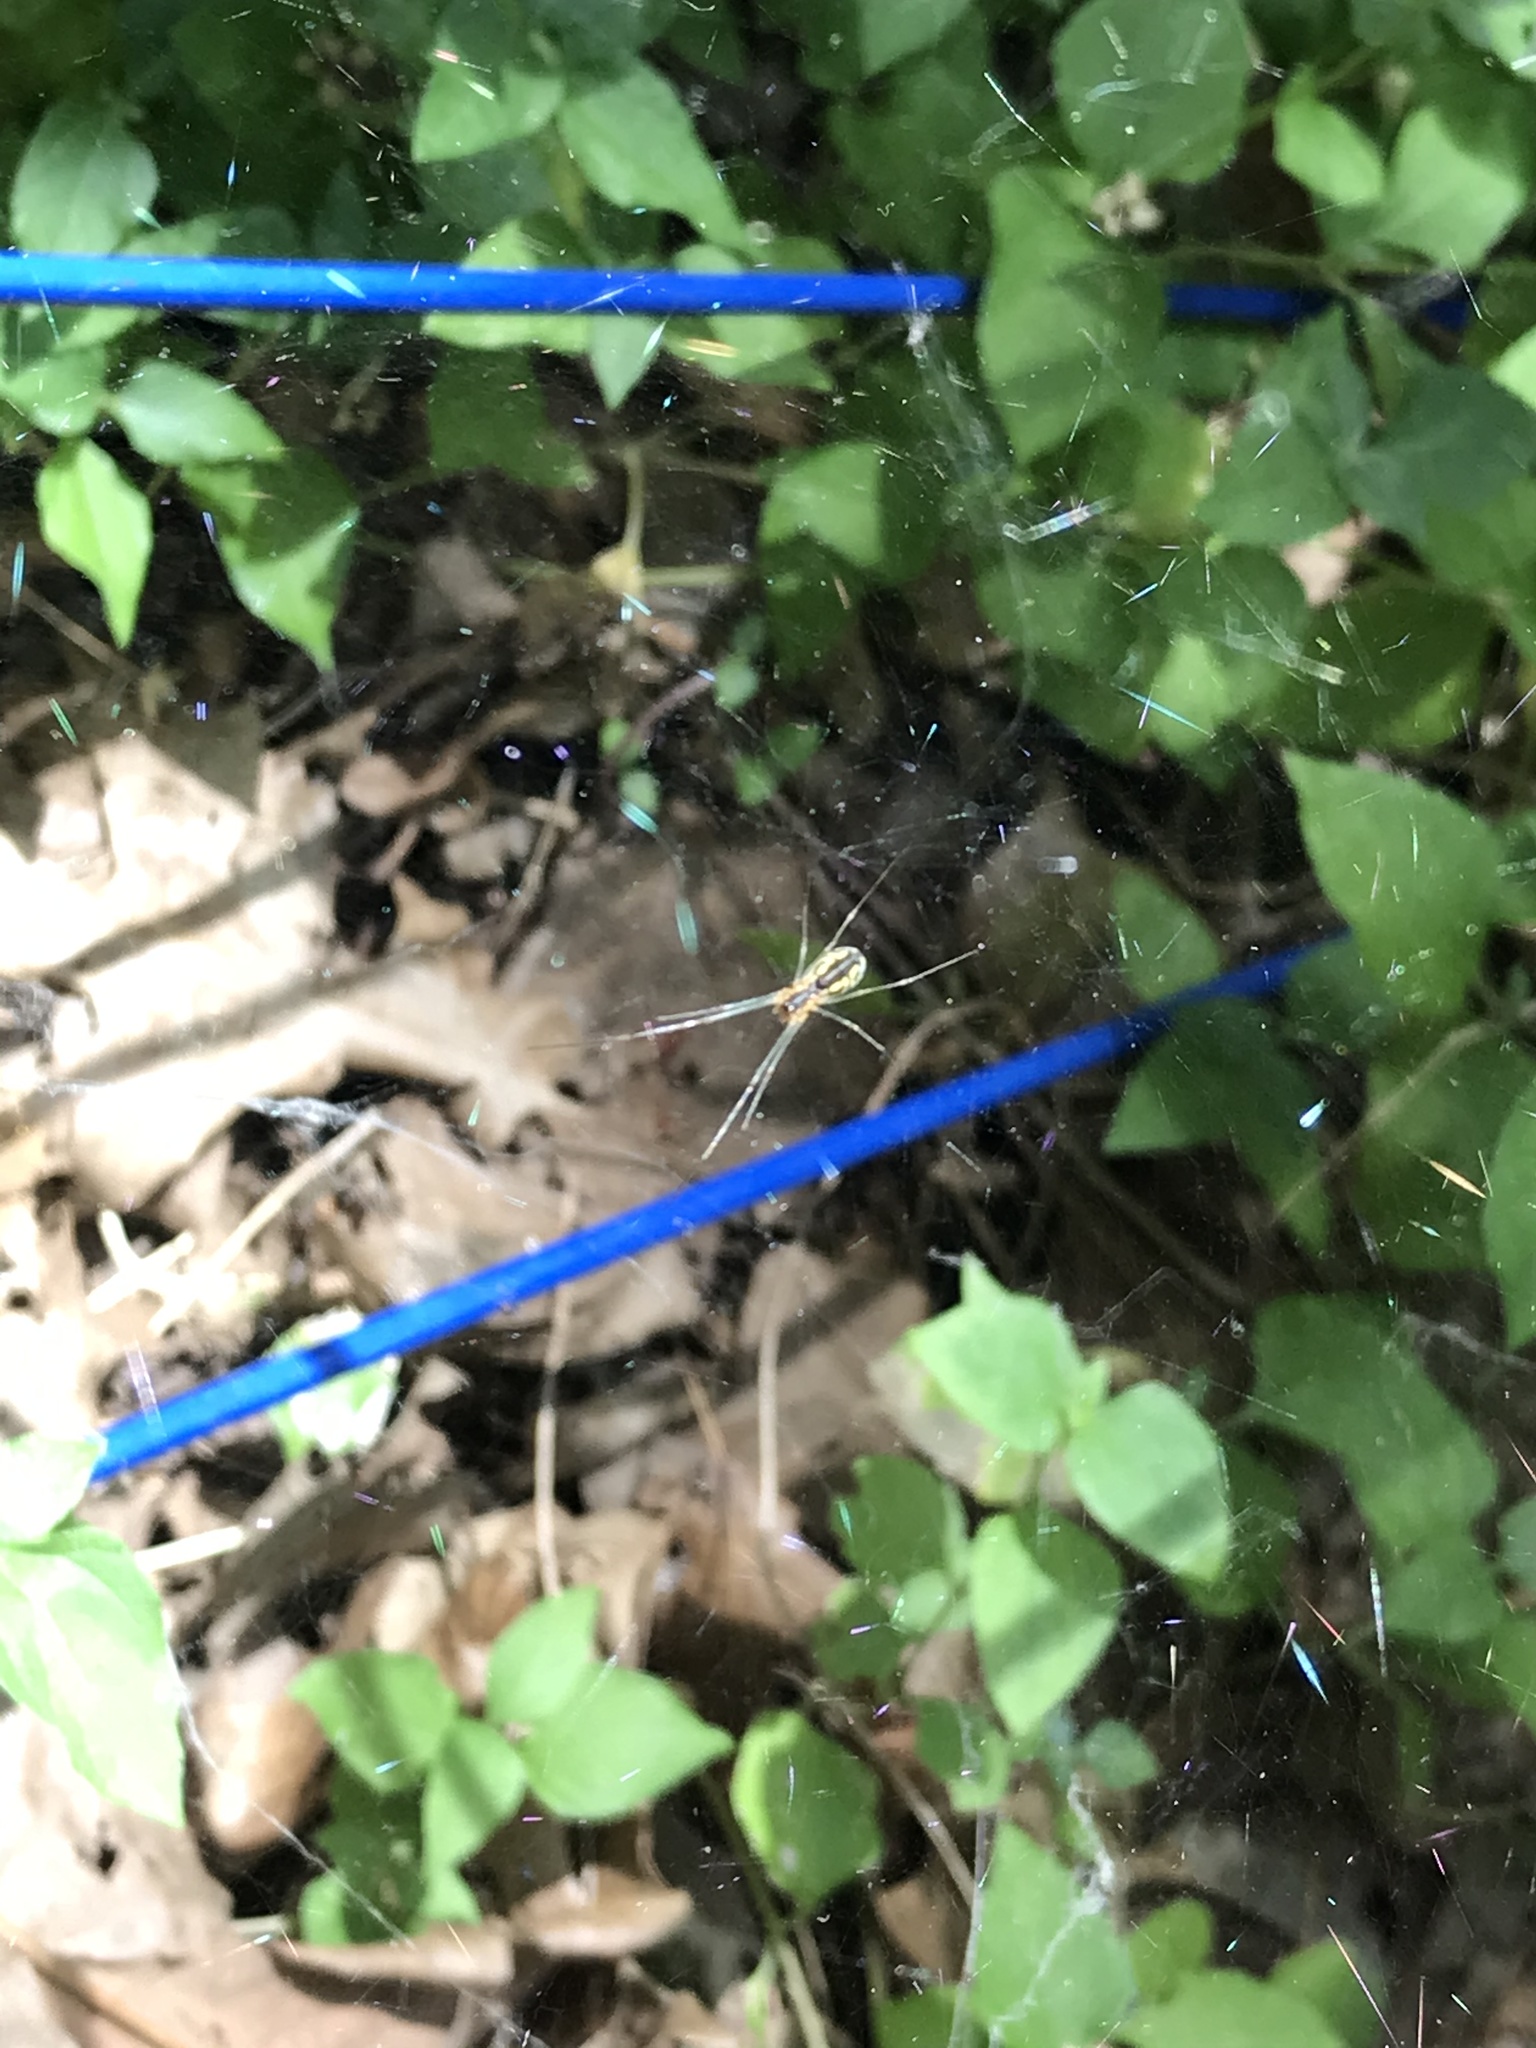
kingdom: Animalia
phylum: Arthropoda
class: Arachnida
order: Araneae
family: Linyphiidae
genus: Neriene
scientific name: Neriene radiata
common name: Filmy dome spider
